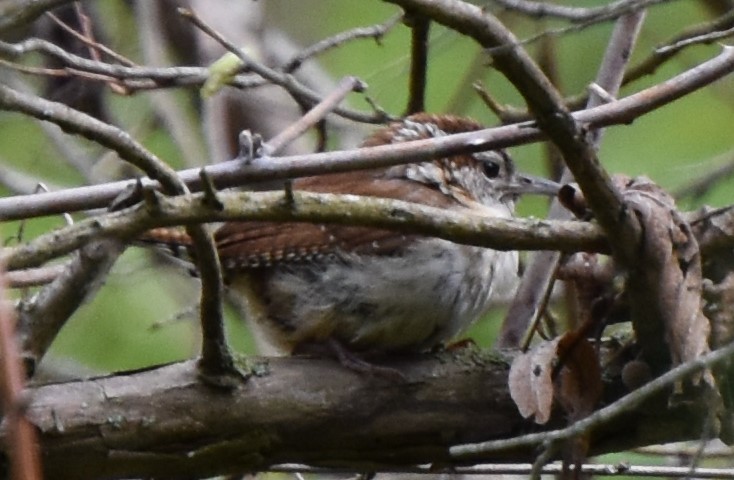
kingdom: Animalia
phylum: Chordata
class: Aves
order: Passeriformes
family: Troglodytidae
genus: Thryothorus
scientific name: Thryothorus ludovicianus
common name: Carolina wren
